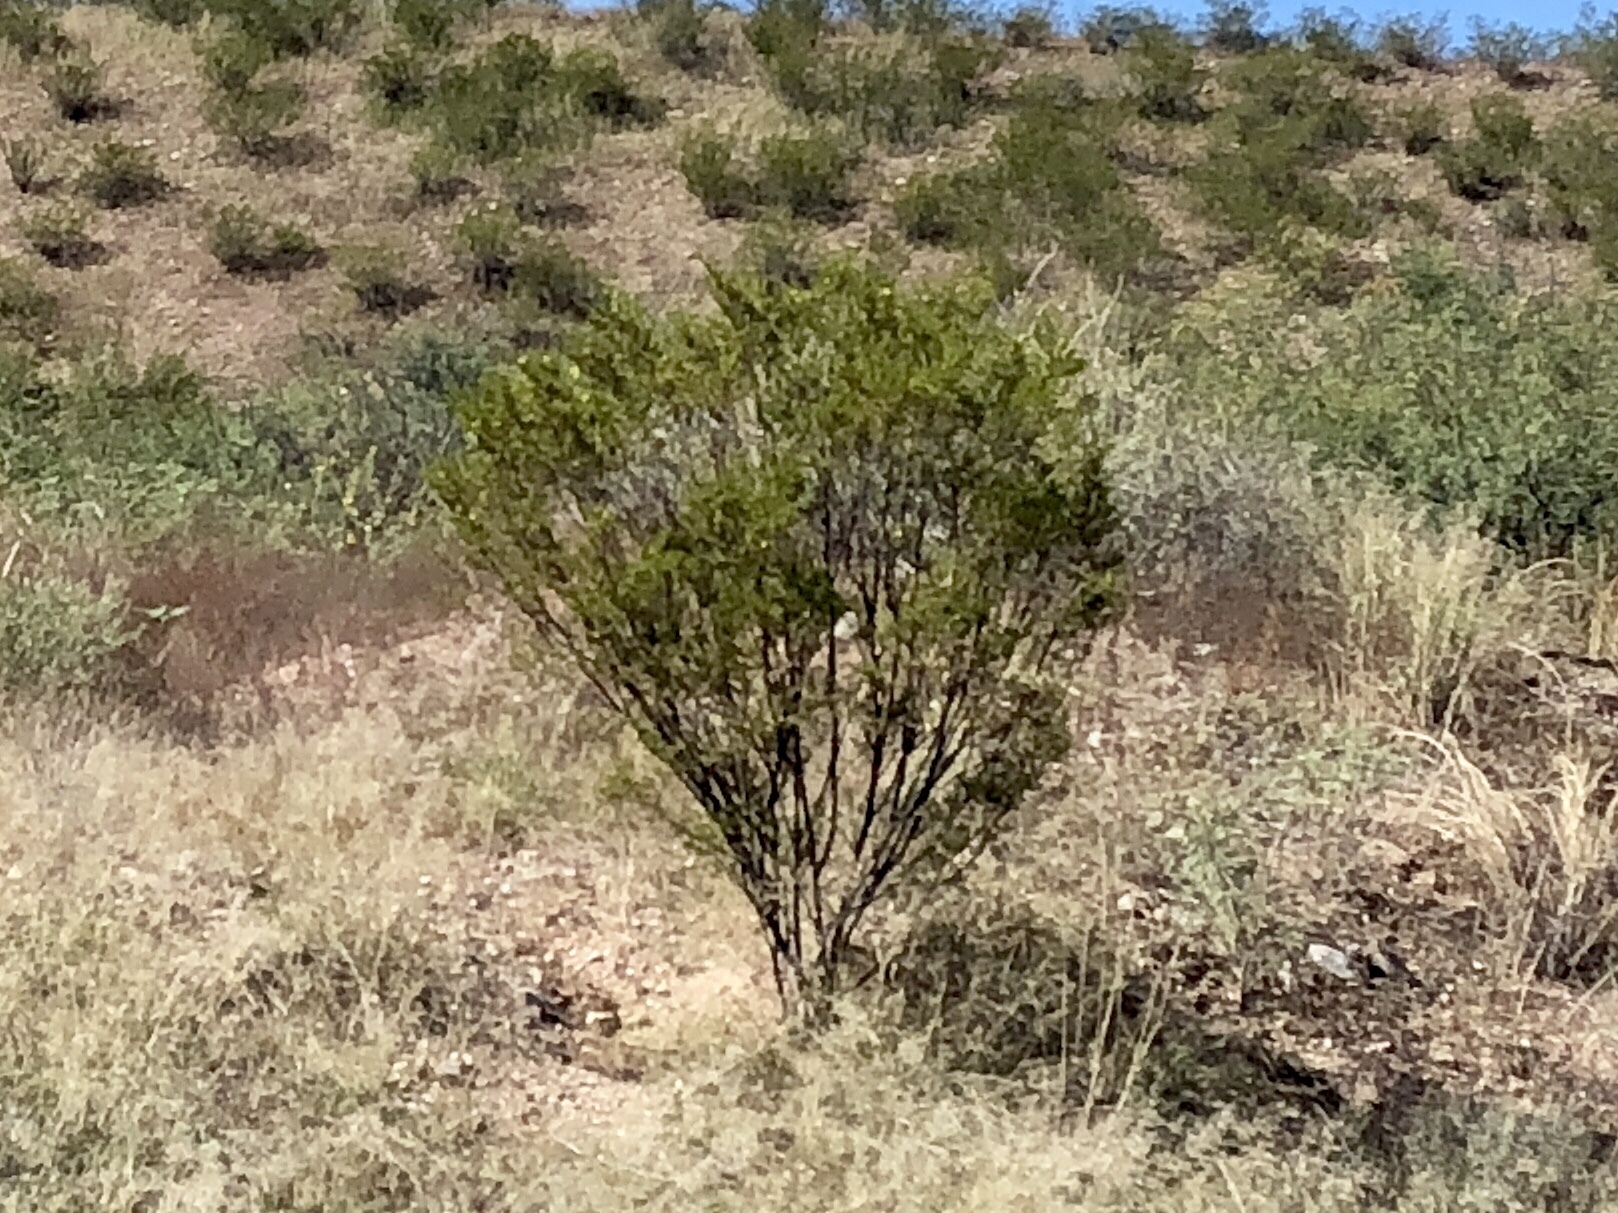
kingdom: Plantae
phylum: Tracheophyta
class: Magnoliopsida
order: Zygophyllales
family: Zygophyllaceae
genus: Larrea
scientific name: Larrea tridentata
